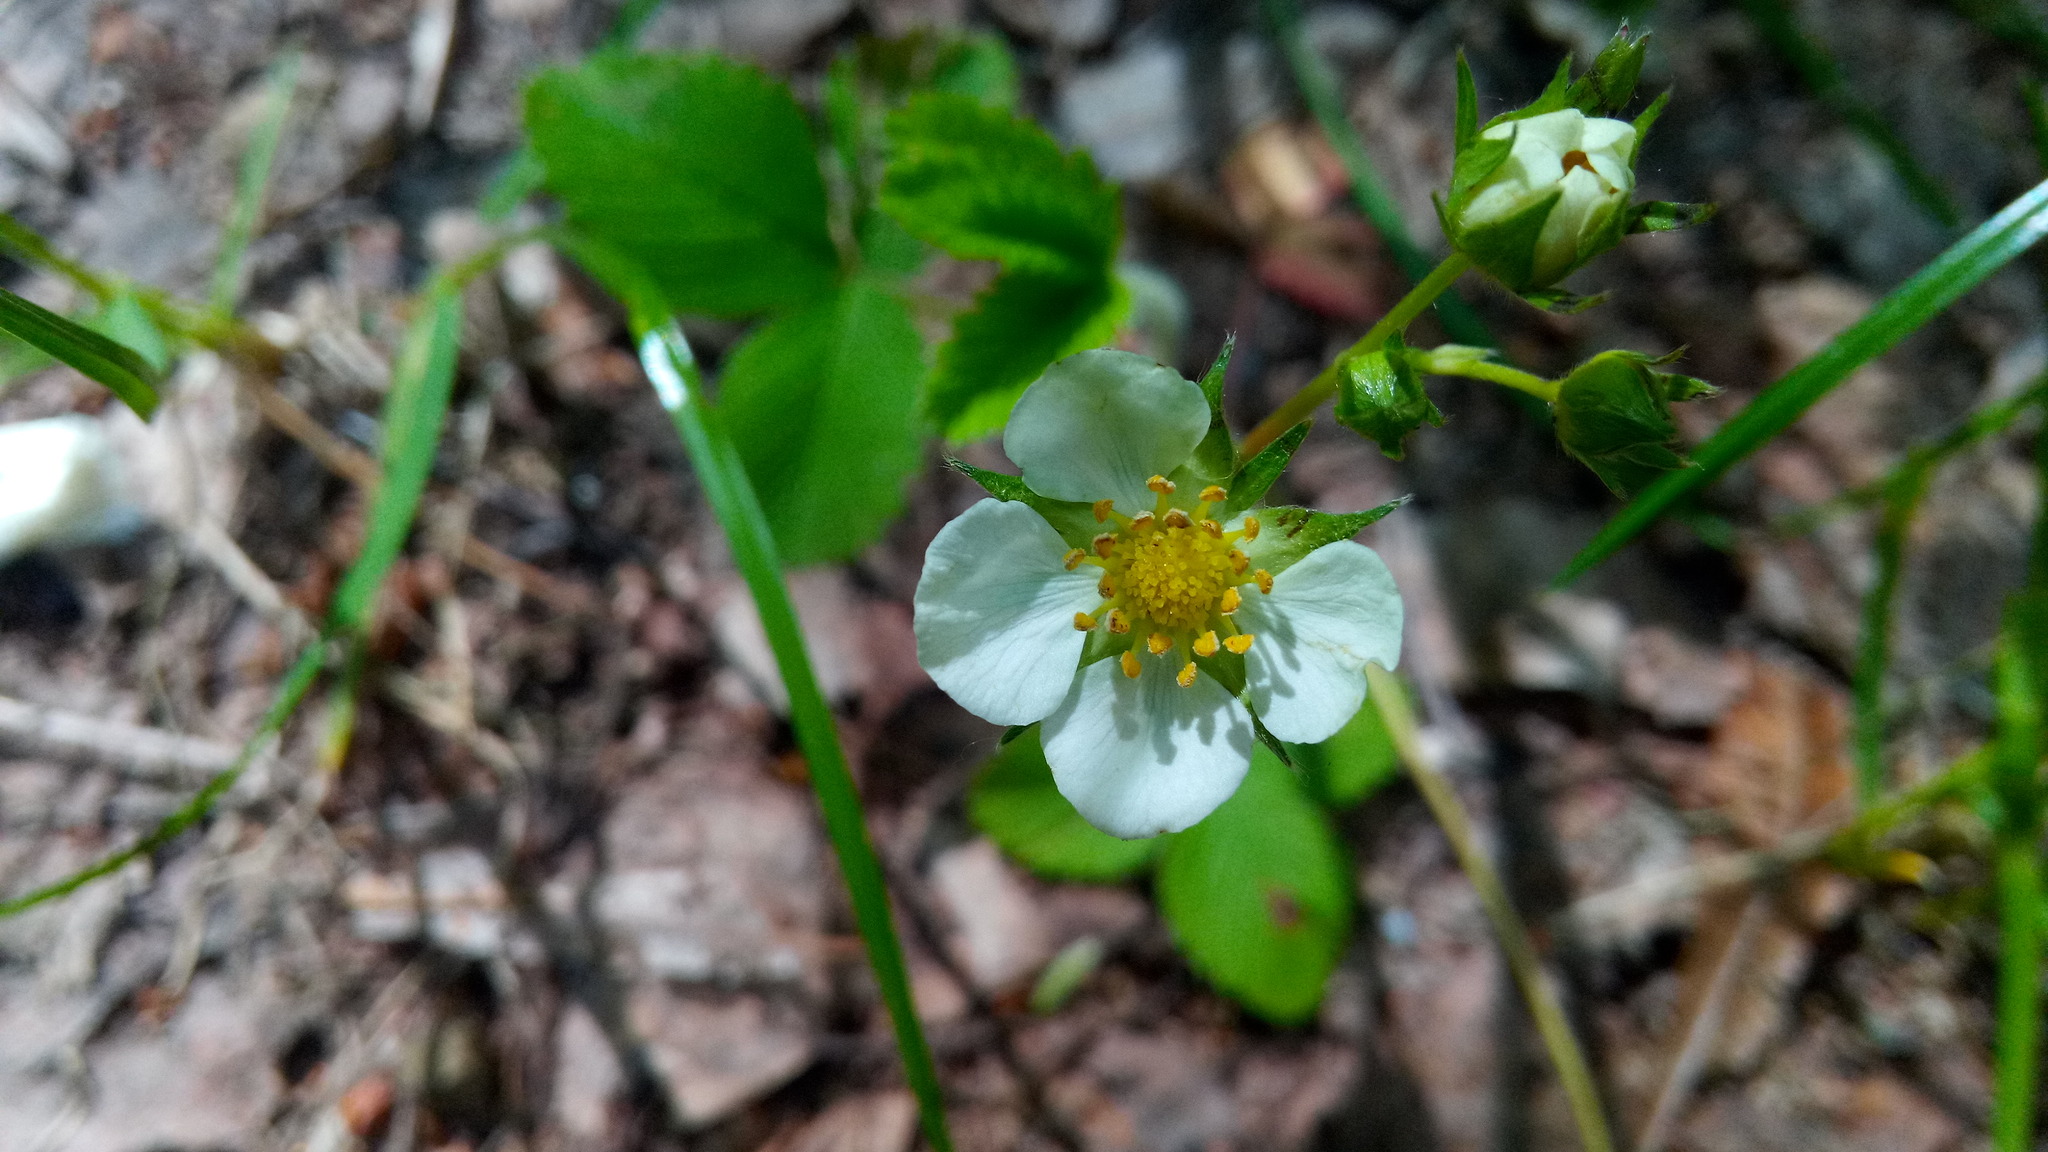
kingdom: Plantae
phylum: Tracheophyta
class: Magnoliopsida
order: Rosales
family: Rosaceae
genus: Fragaria
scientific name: Fragaria viridis
